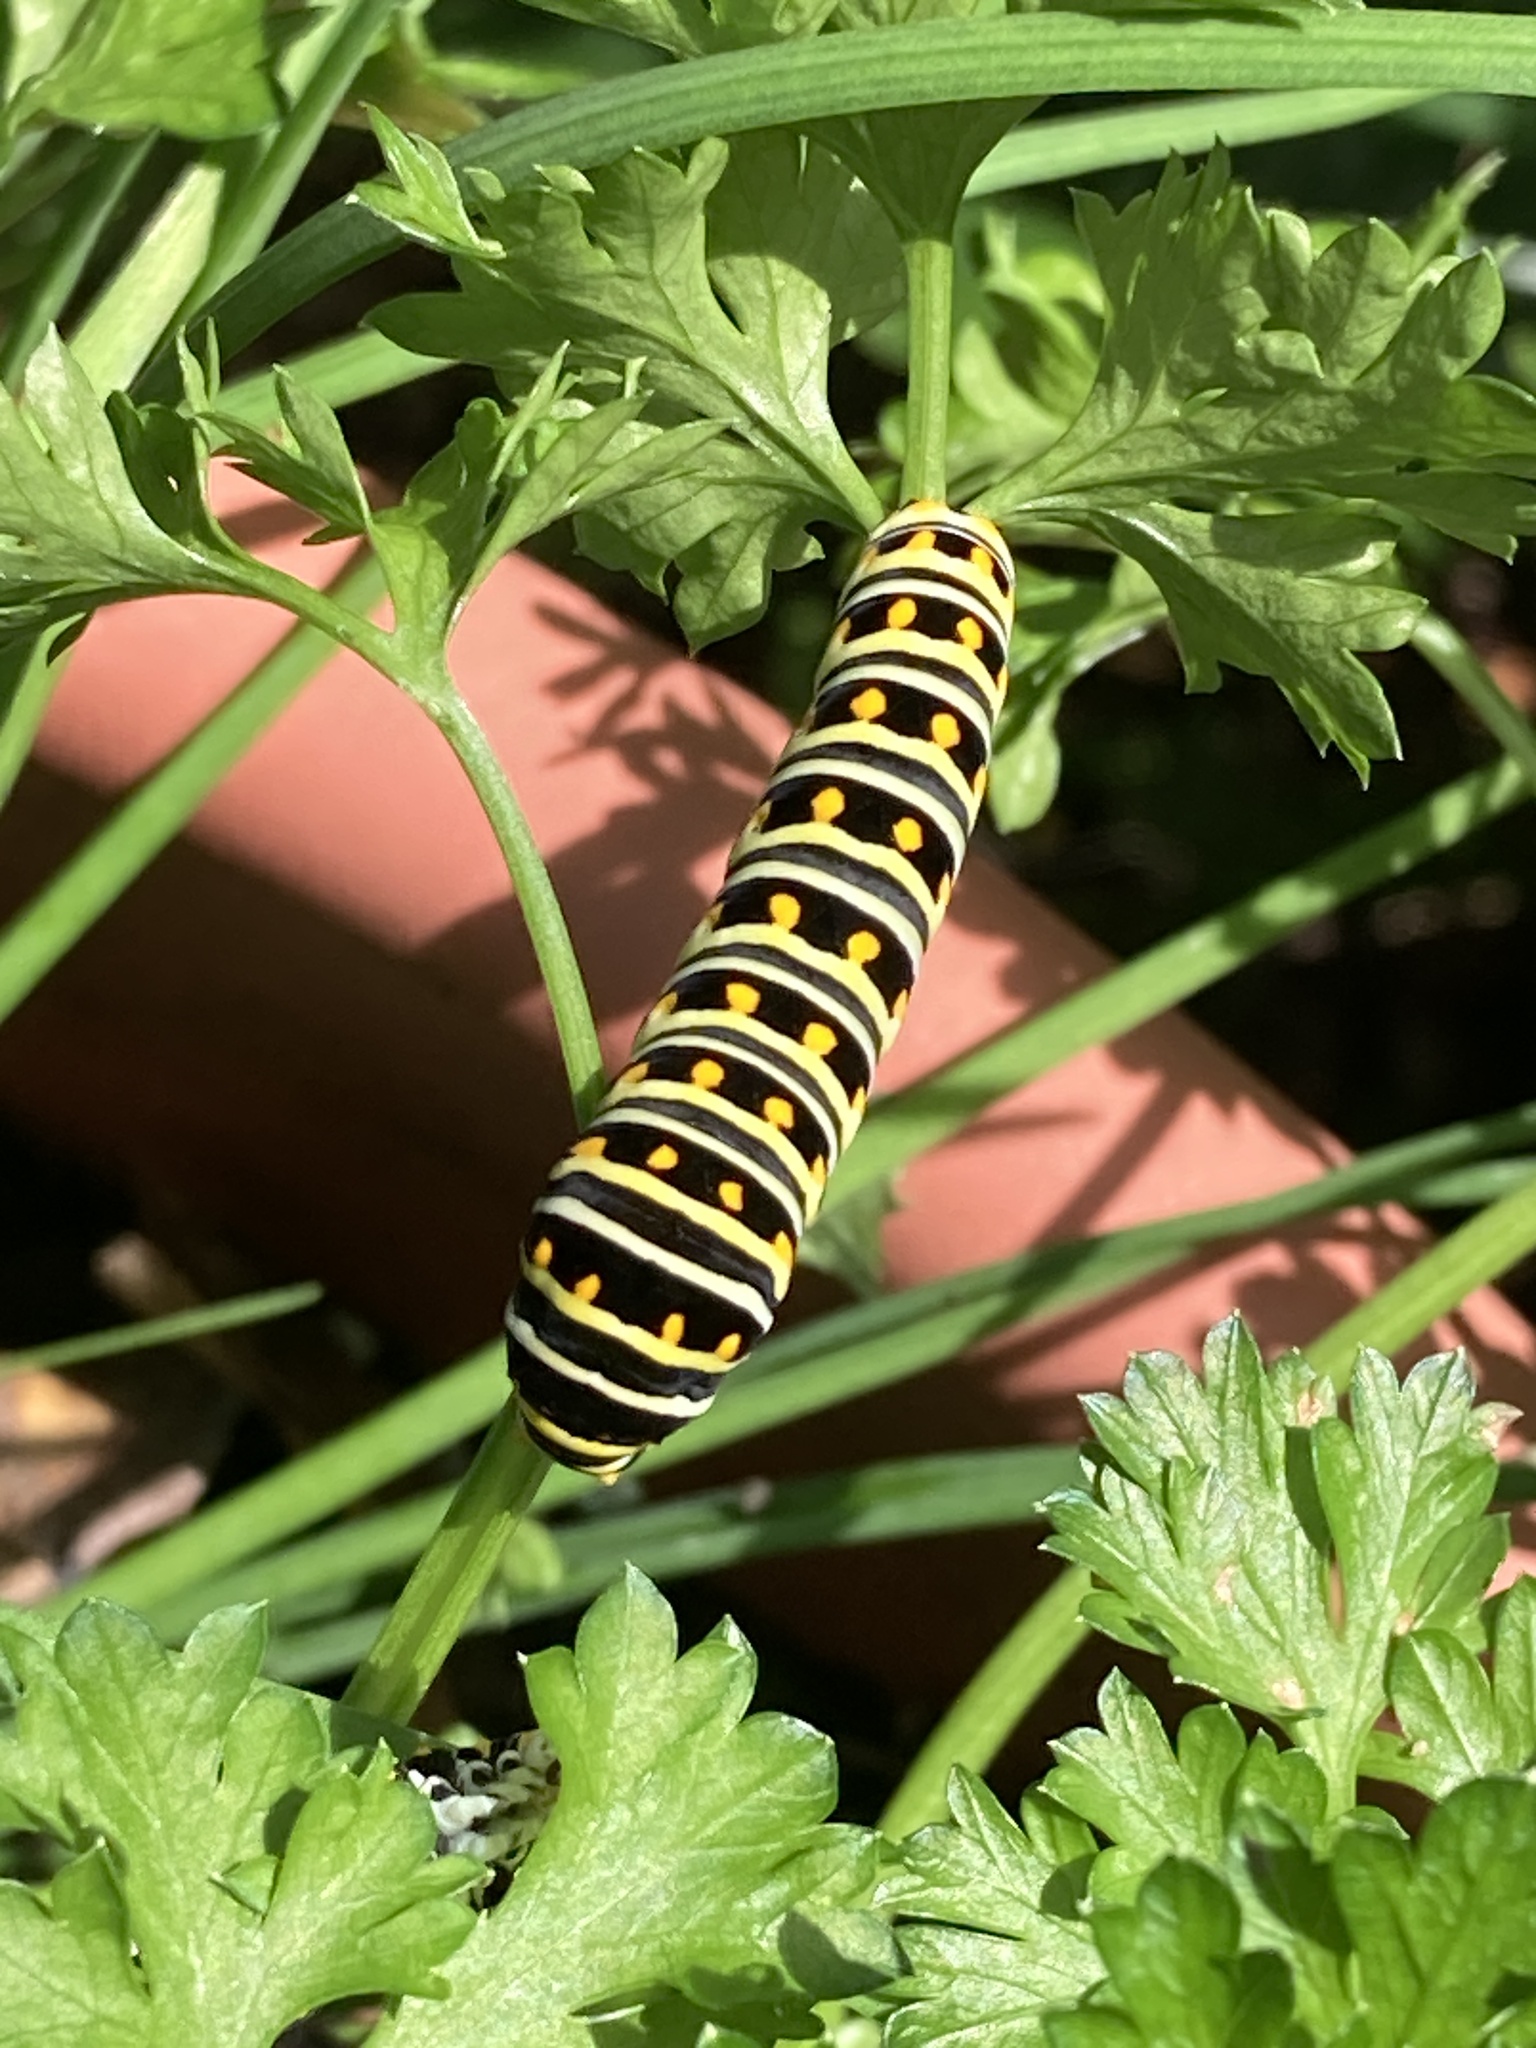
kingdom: Animalia
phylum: Arthropoda
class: Insecta
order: Lepidoptera
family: Papilionidae
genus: Papilio
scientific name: Papilio polyxenes
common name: Black swallowtail
